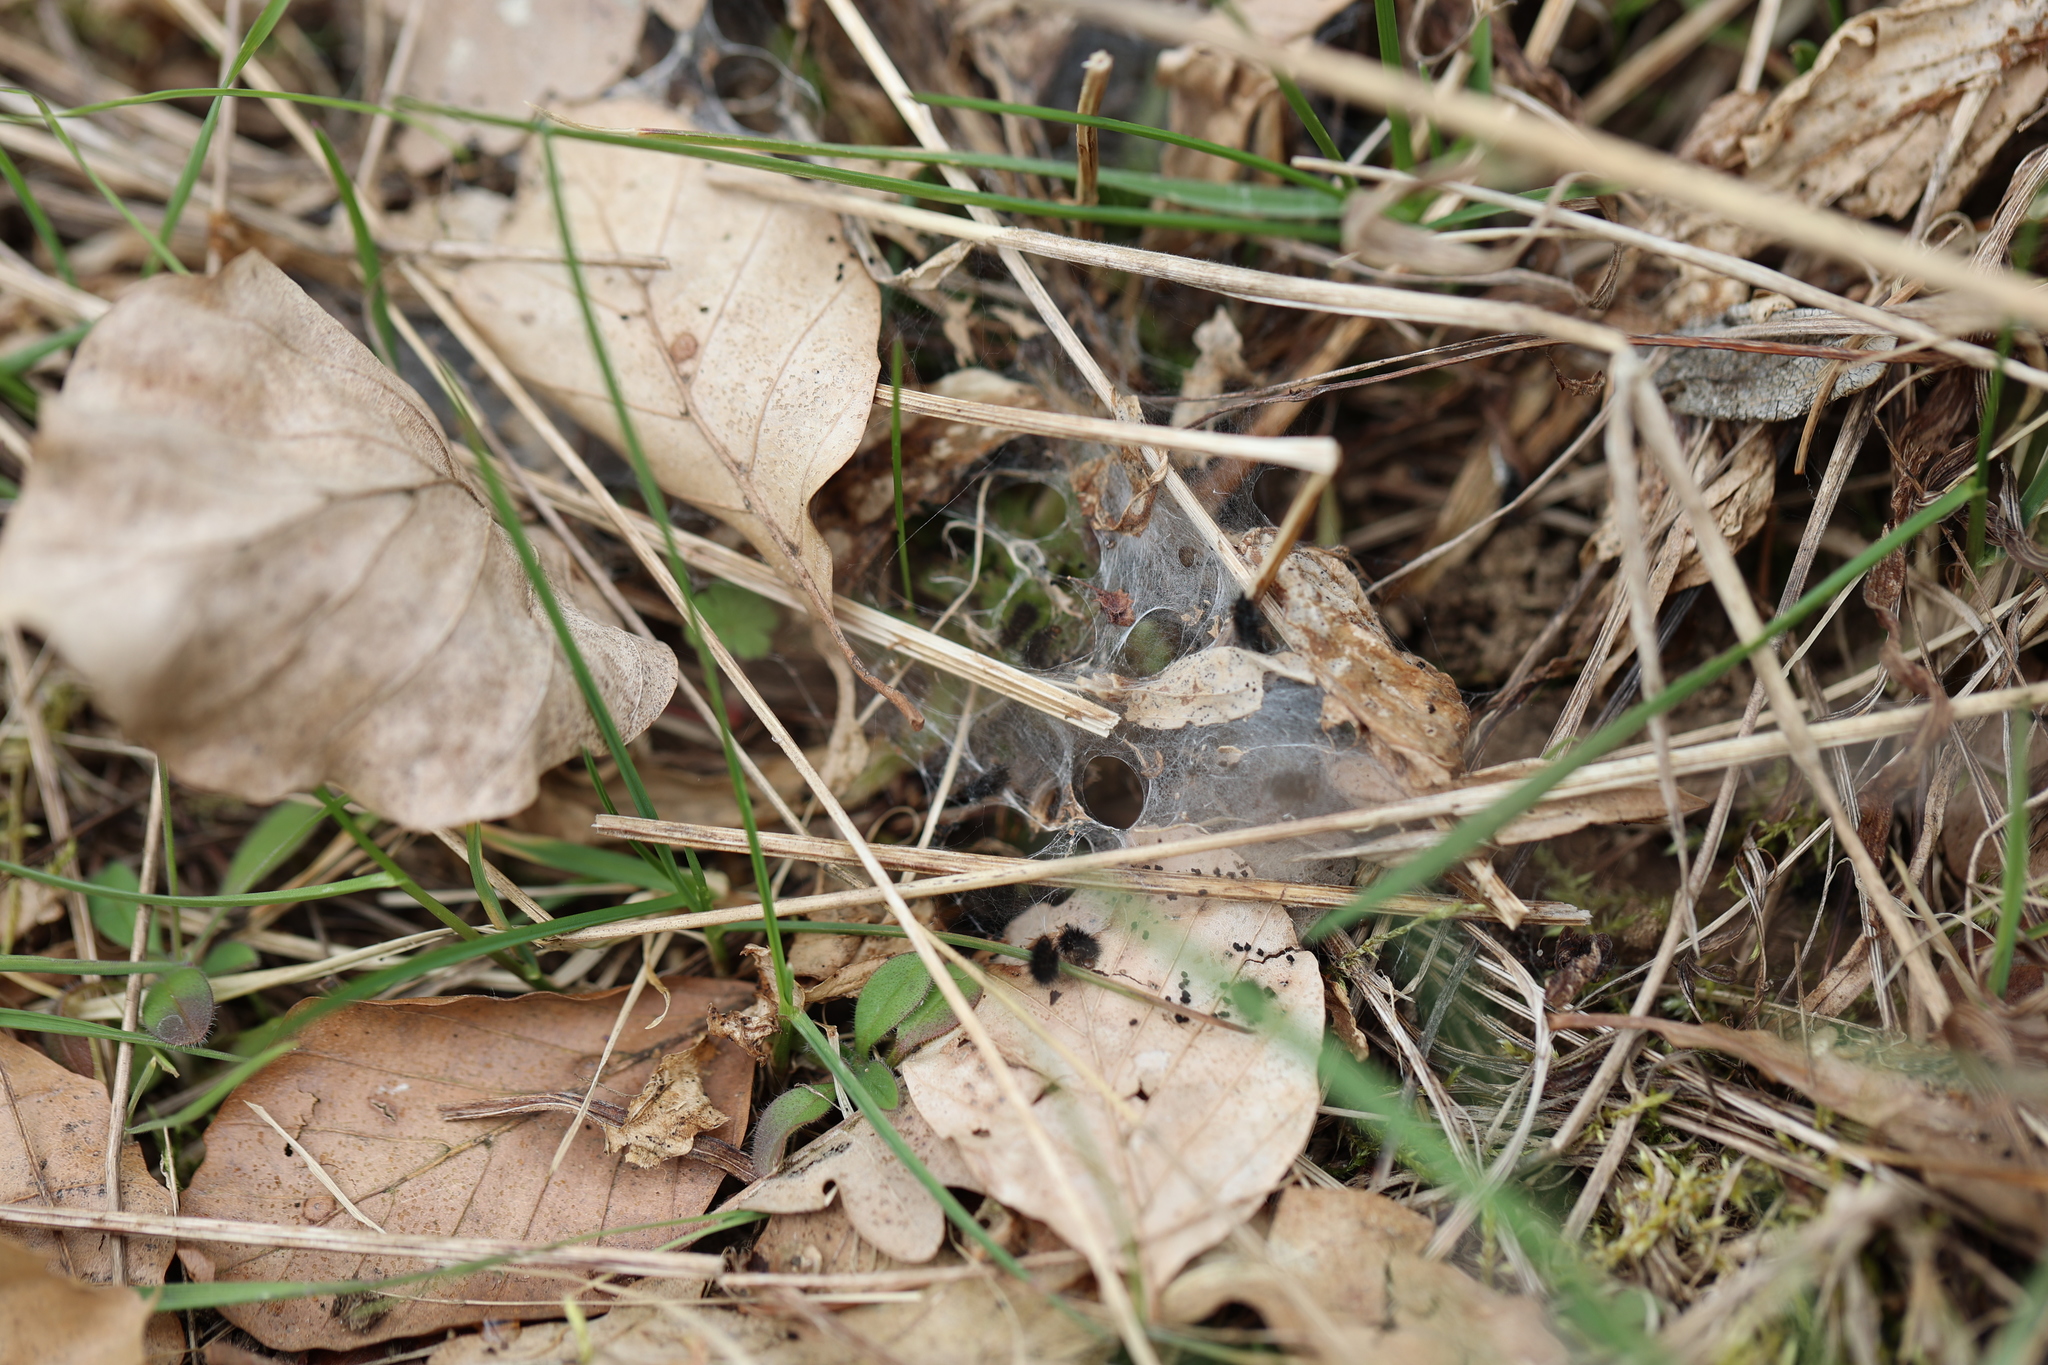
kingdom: Animalia
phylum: Arthropoda
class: Insecta
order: Lepidoptera
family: Nymphalidae
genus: Melitaea
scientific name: Melitaea cinxia
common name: Glanville fritillary
